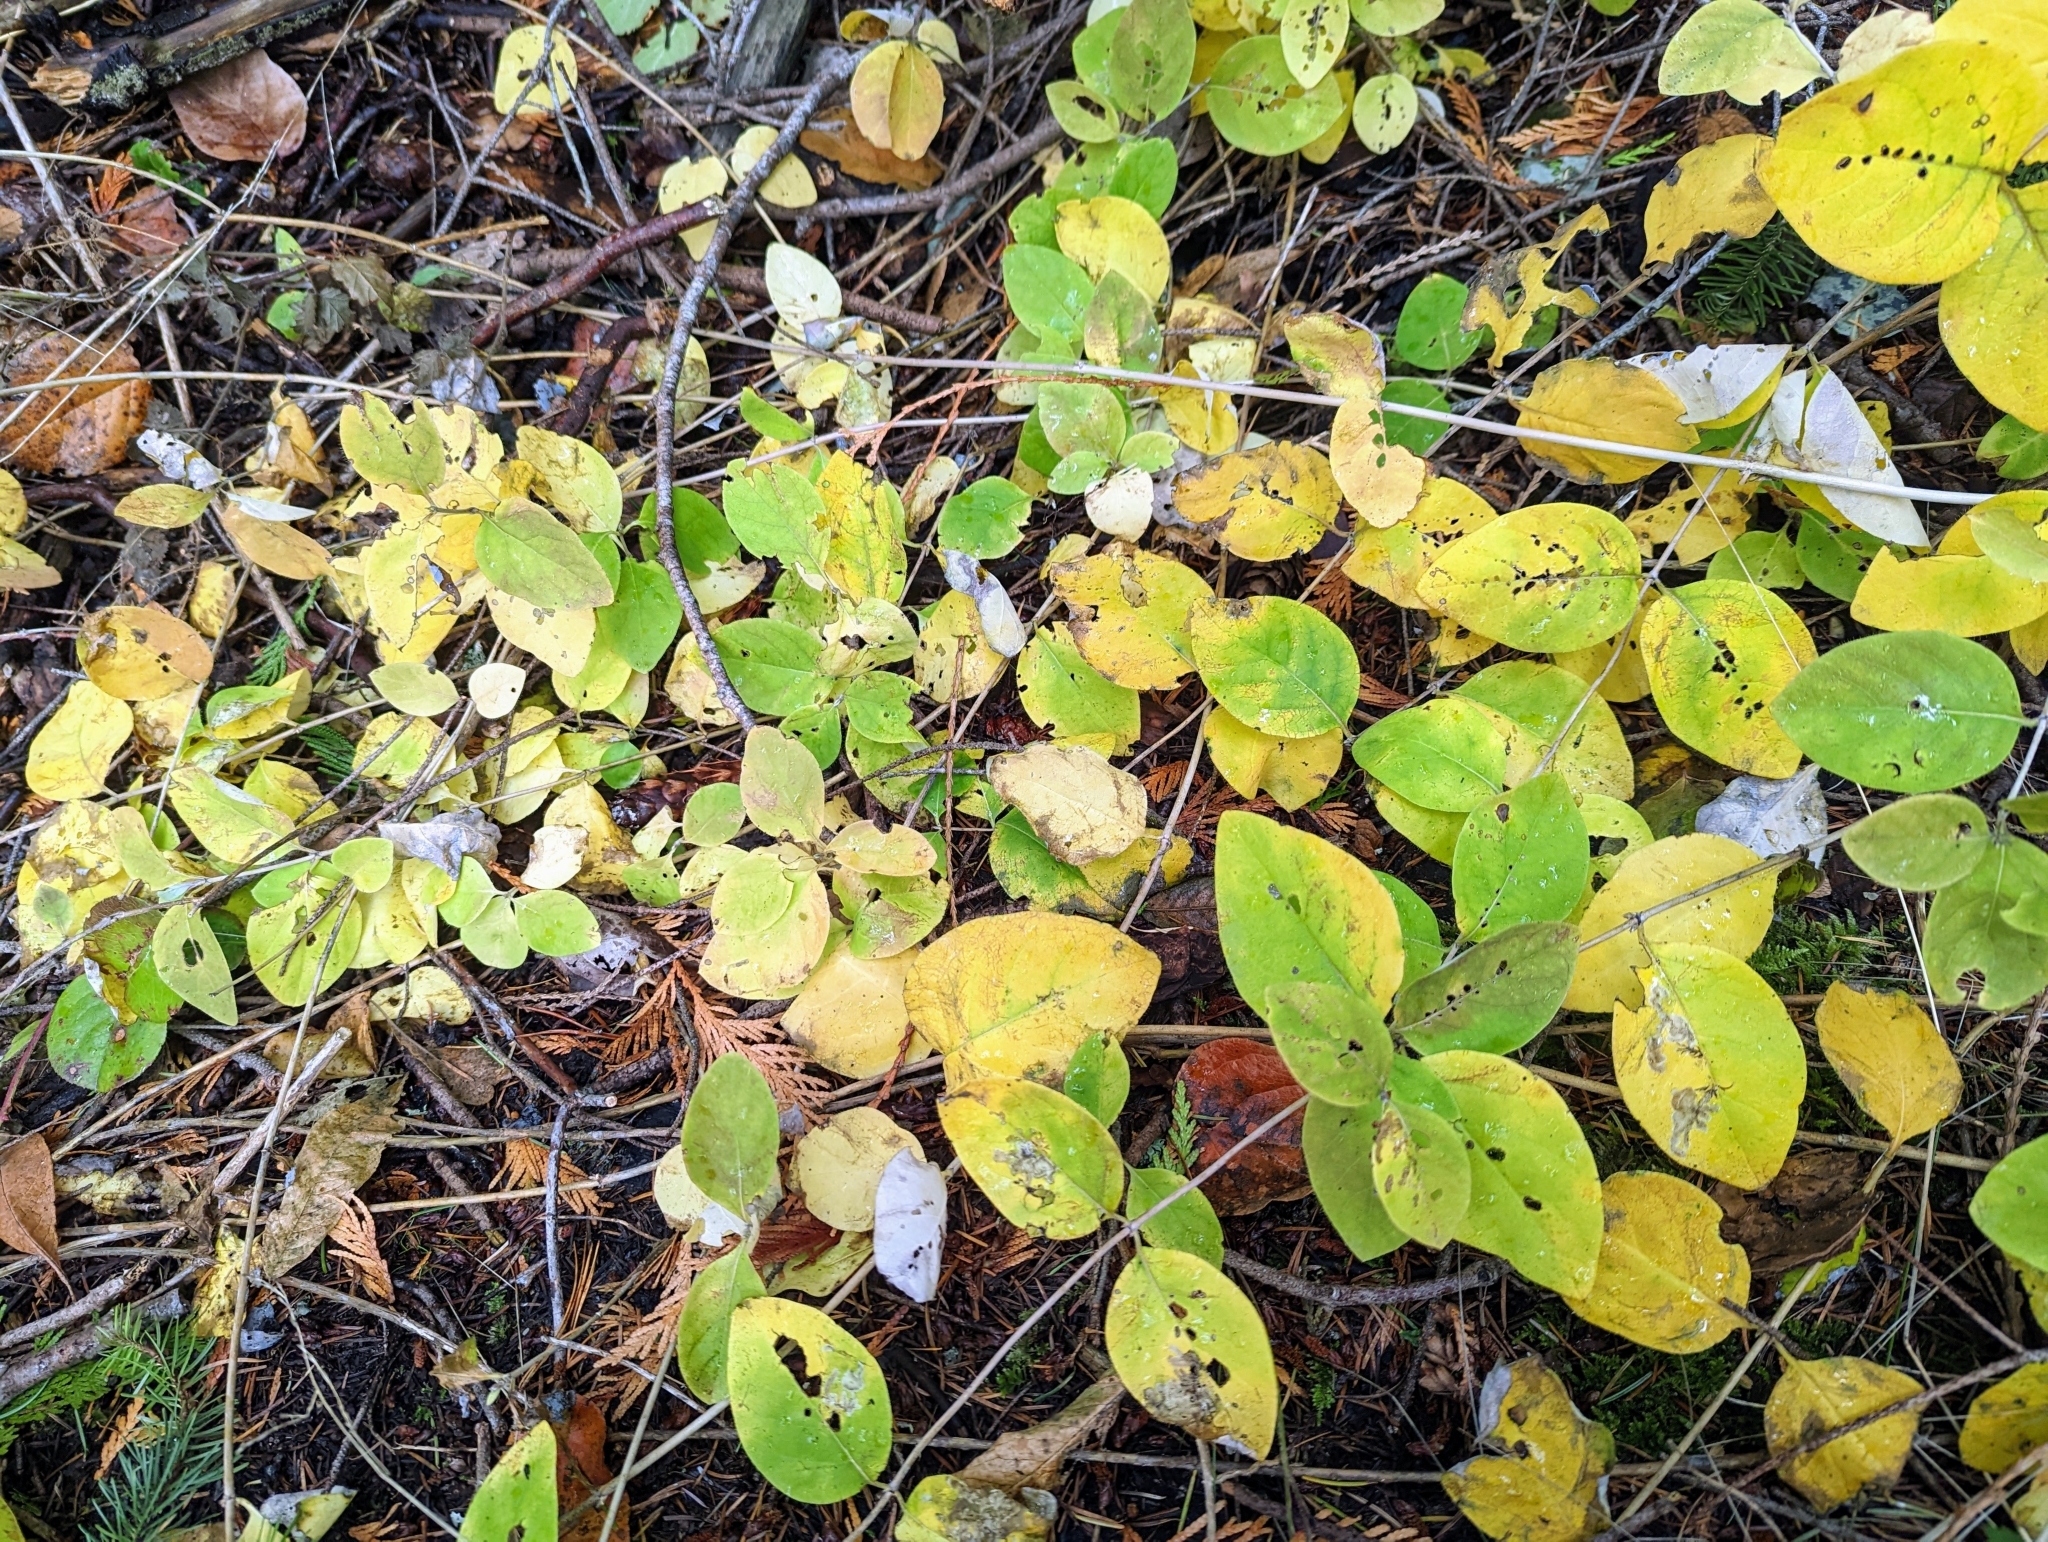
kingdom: Plantae
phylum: Tracheophyta
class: Magnoliopsida
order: Dipsacales
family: Caprifoliaceae
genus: Lonicera
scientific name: Lonicera ciliosa
